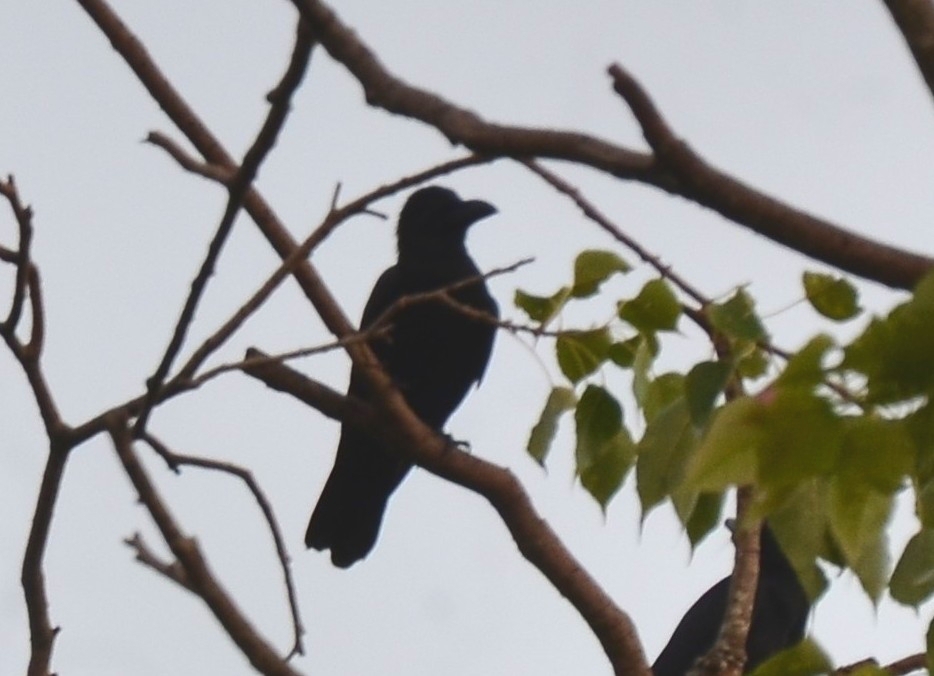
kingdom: Animalia
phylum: Chordata
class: Aves
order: Passeriformes
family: Corvidae
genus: Corvus
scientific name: Corvus macrorhynchos
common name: Large-billed crow
